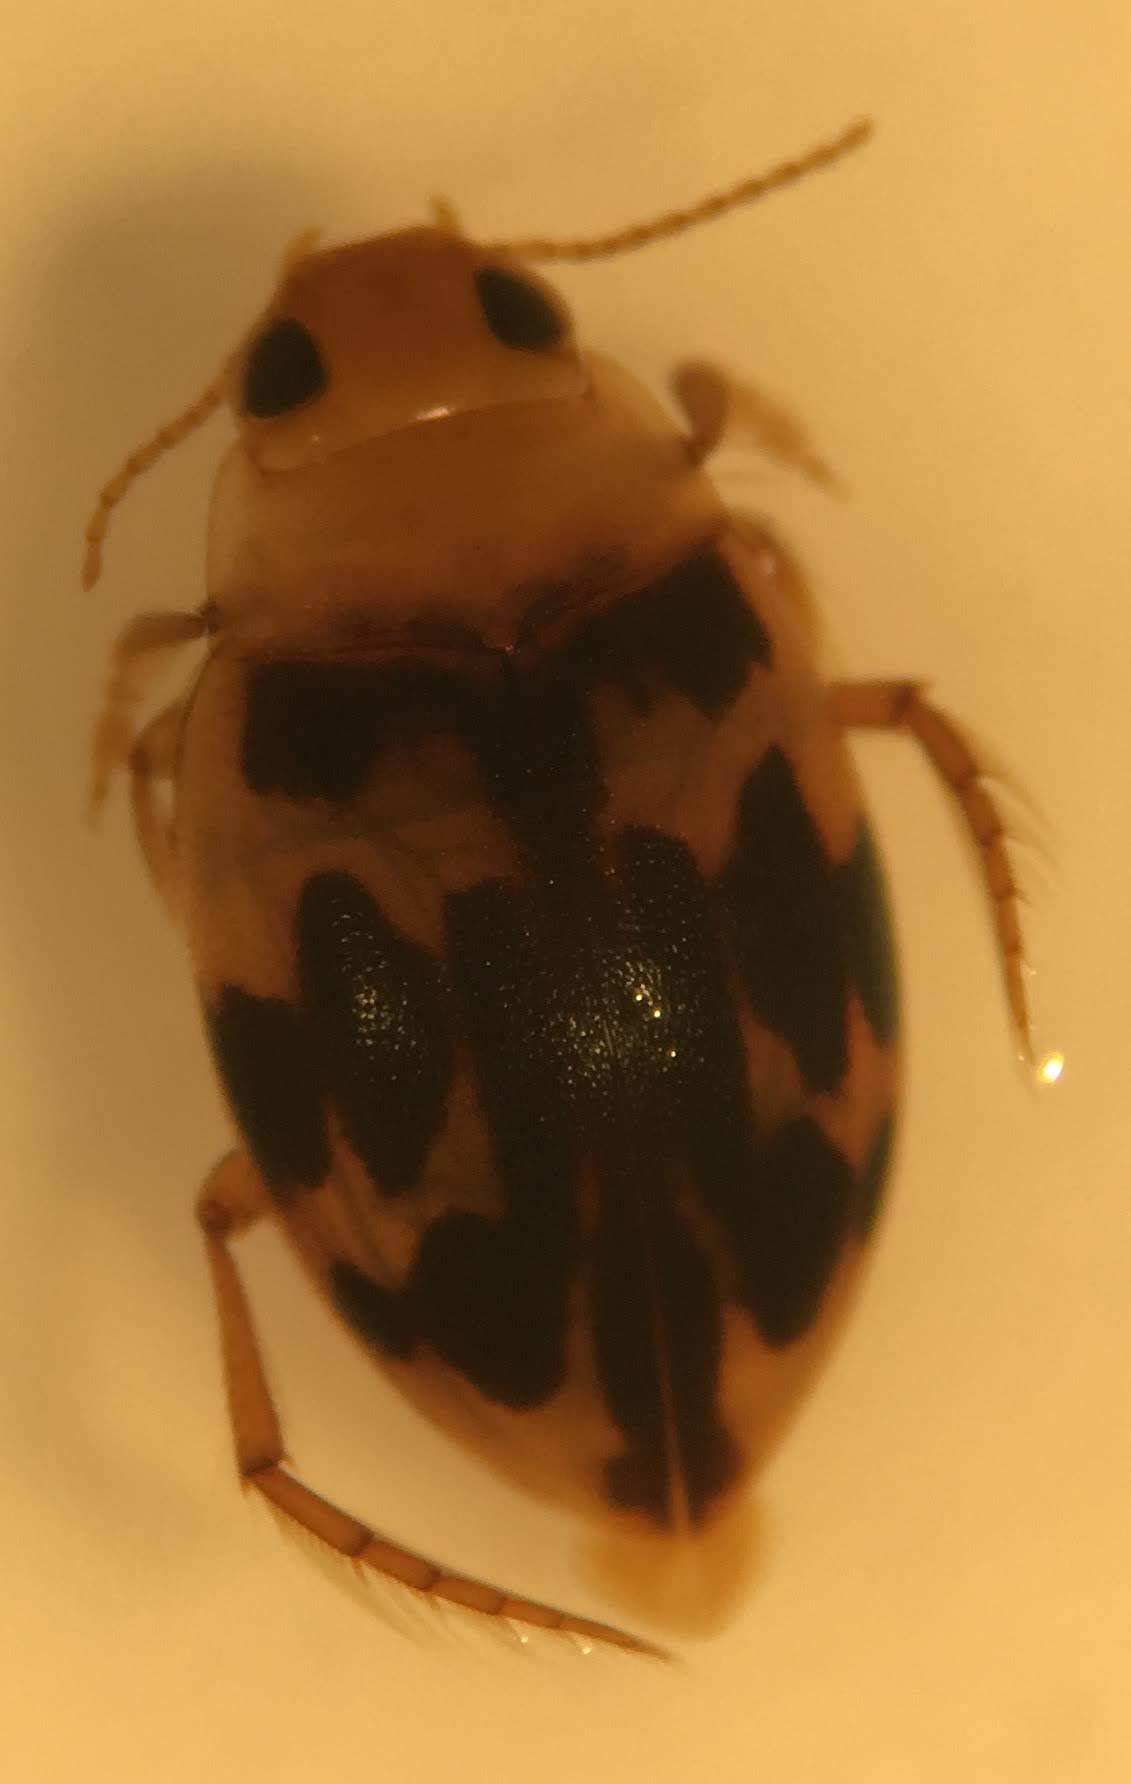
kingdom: Animalia
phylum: Arthropoda
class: Insecta
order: Coleoptera
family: Dytiscidae
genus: Neoporus
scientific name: Neoporus venustus
